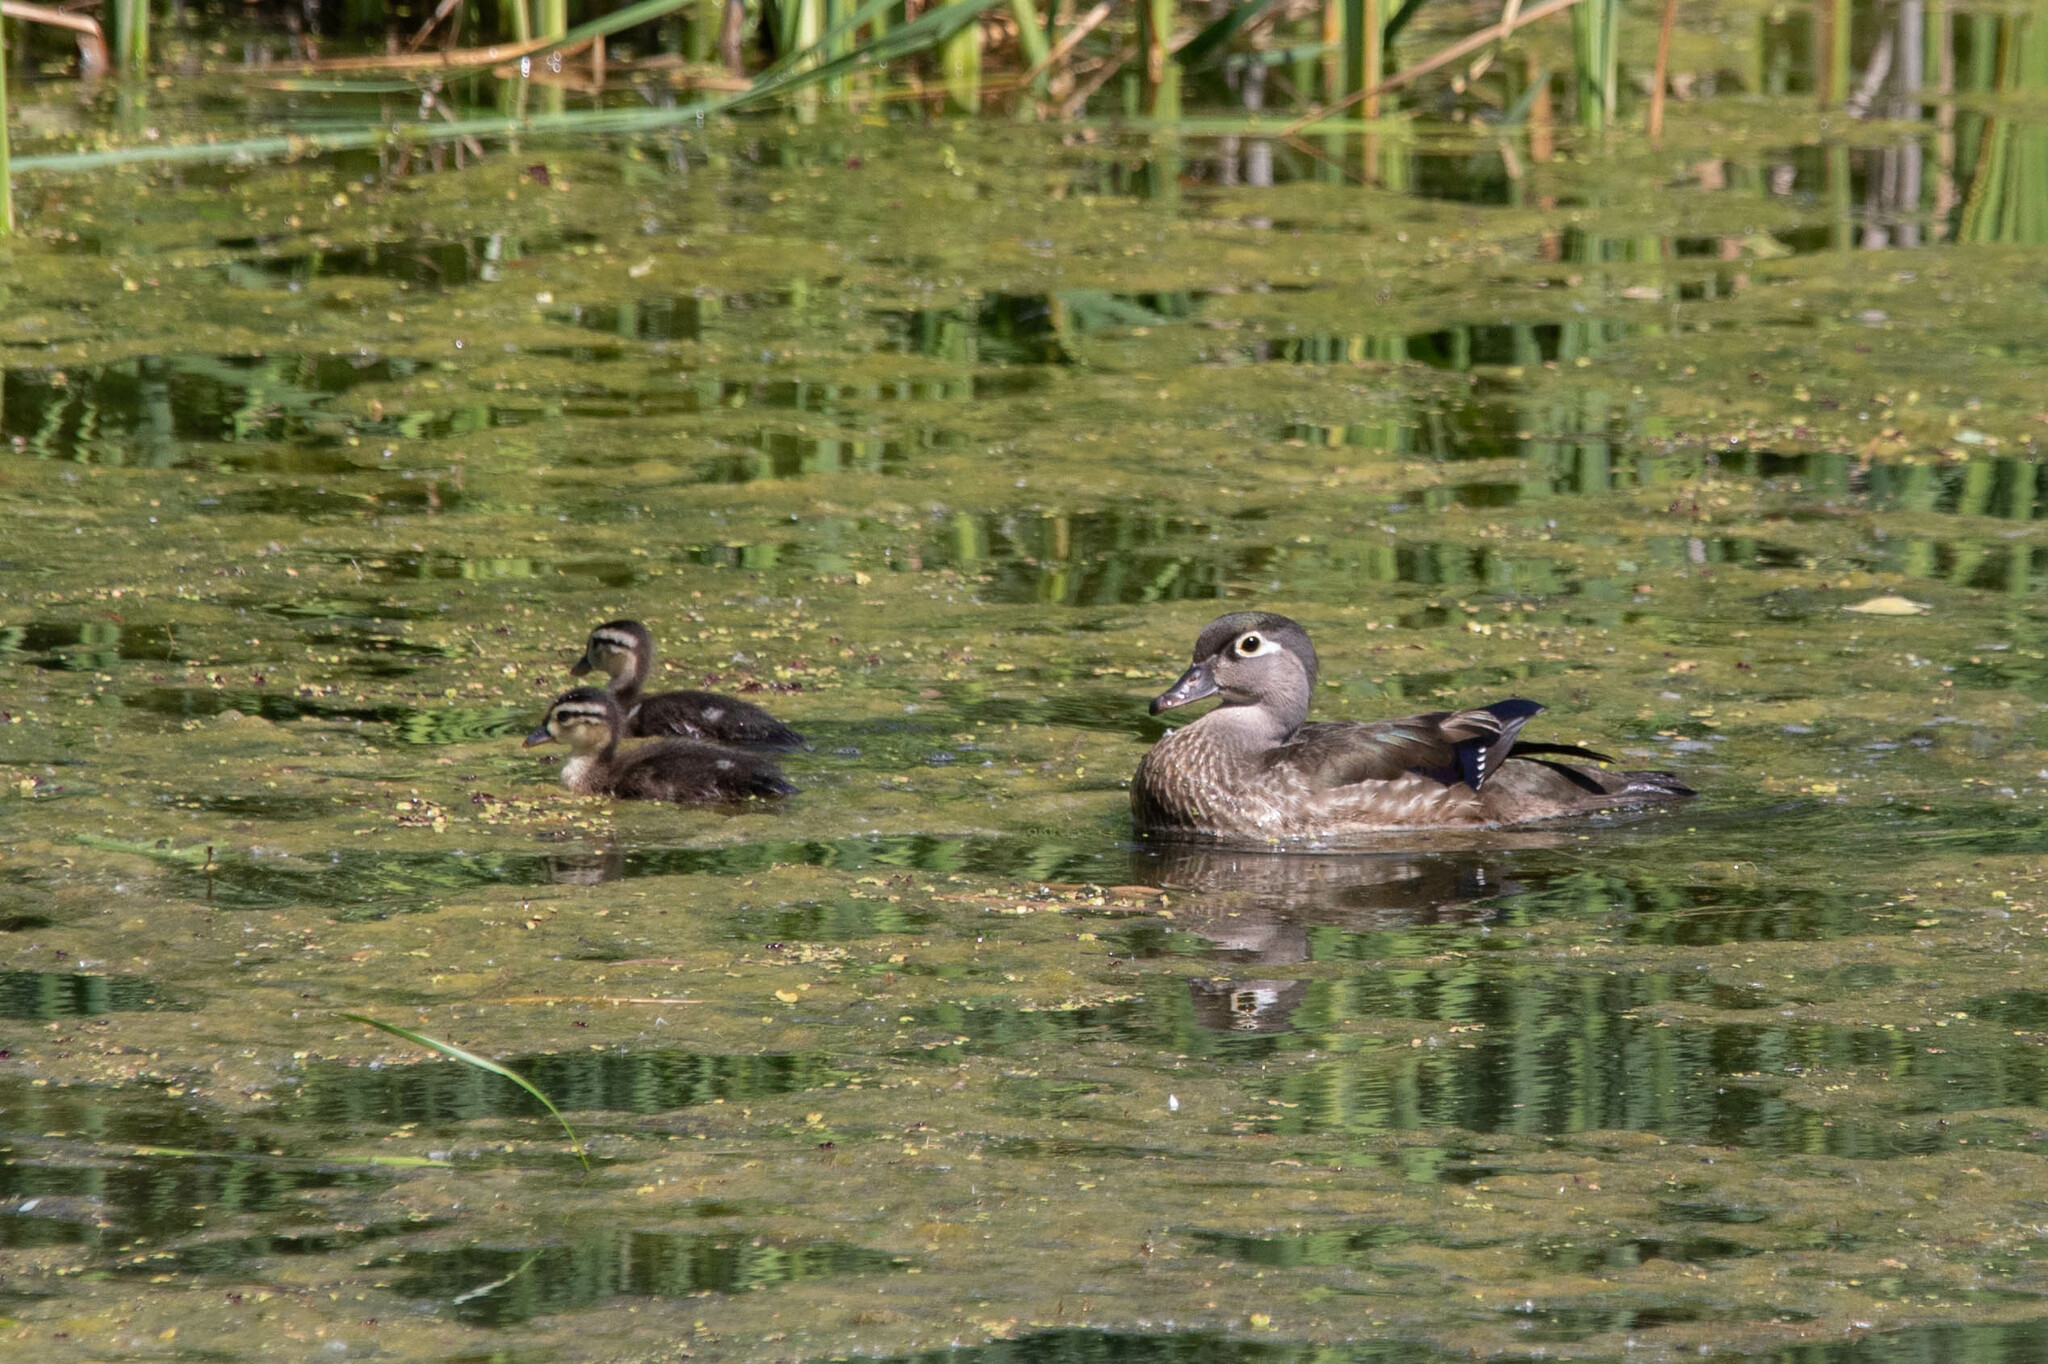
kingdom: Animalia
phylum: Chordata
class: Aves
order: Anseriformes
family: Anatidae
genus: Aix
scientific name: Aix sponsa
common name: Wood duck
